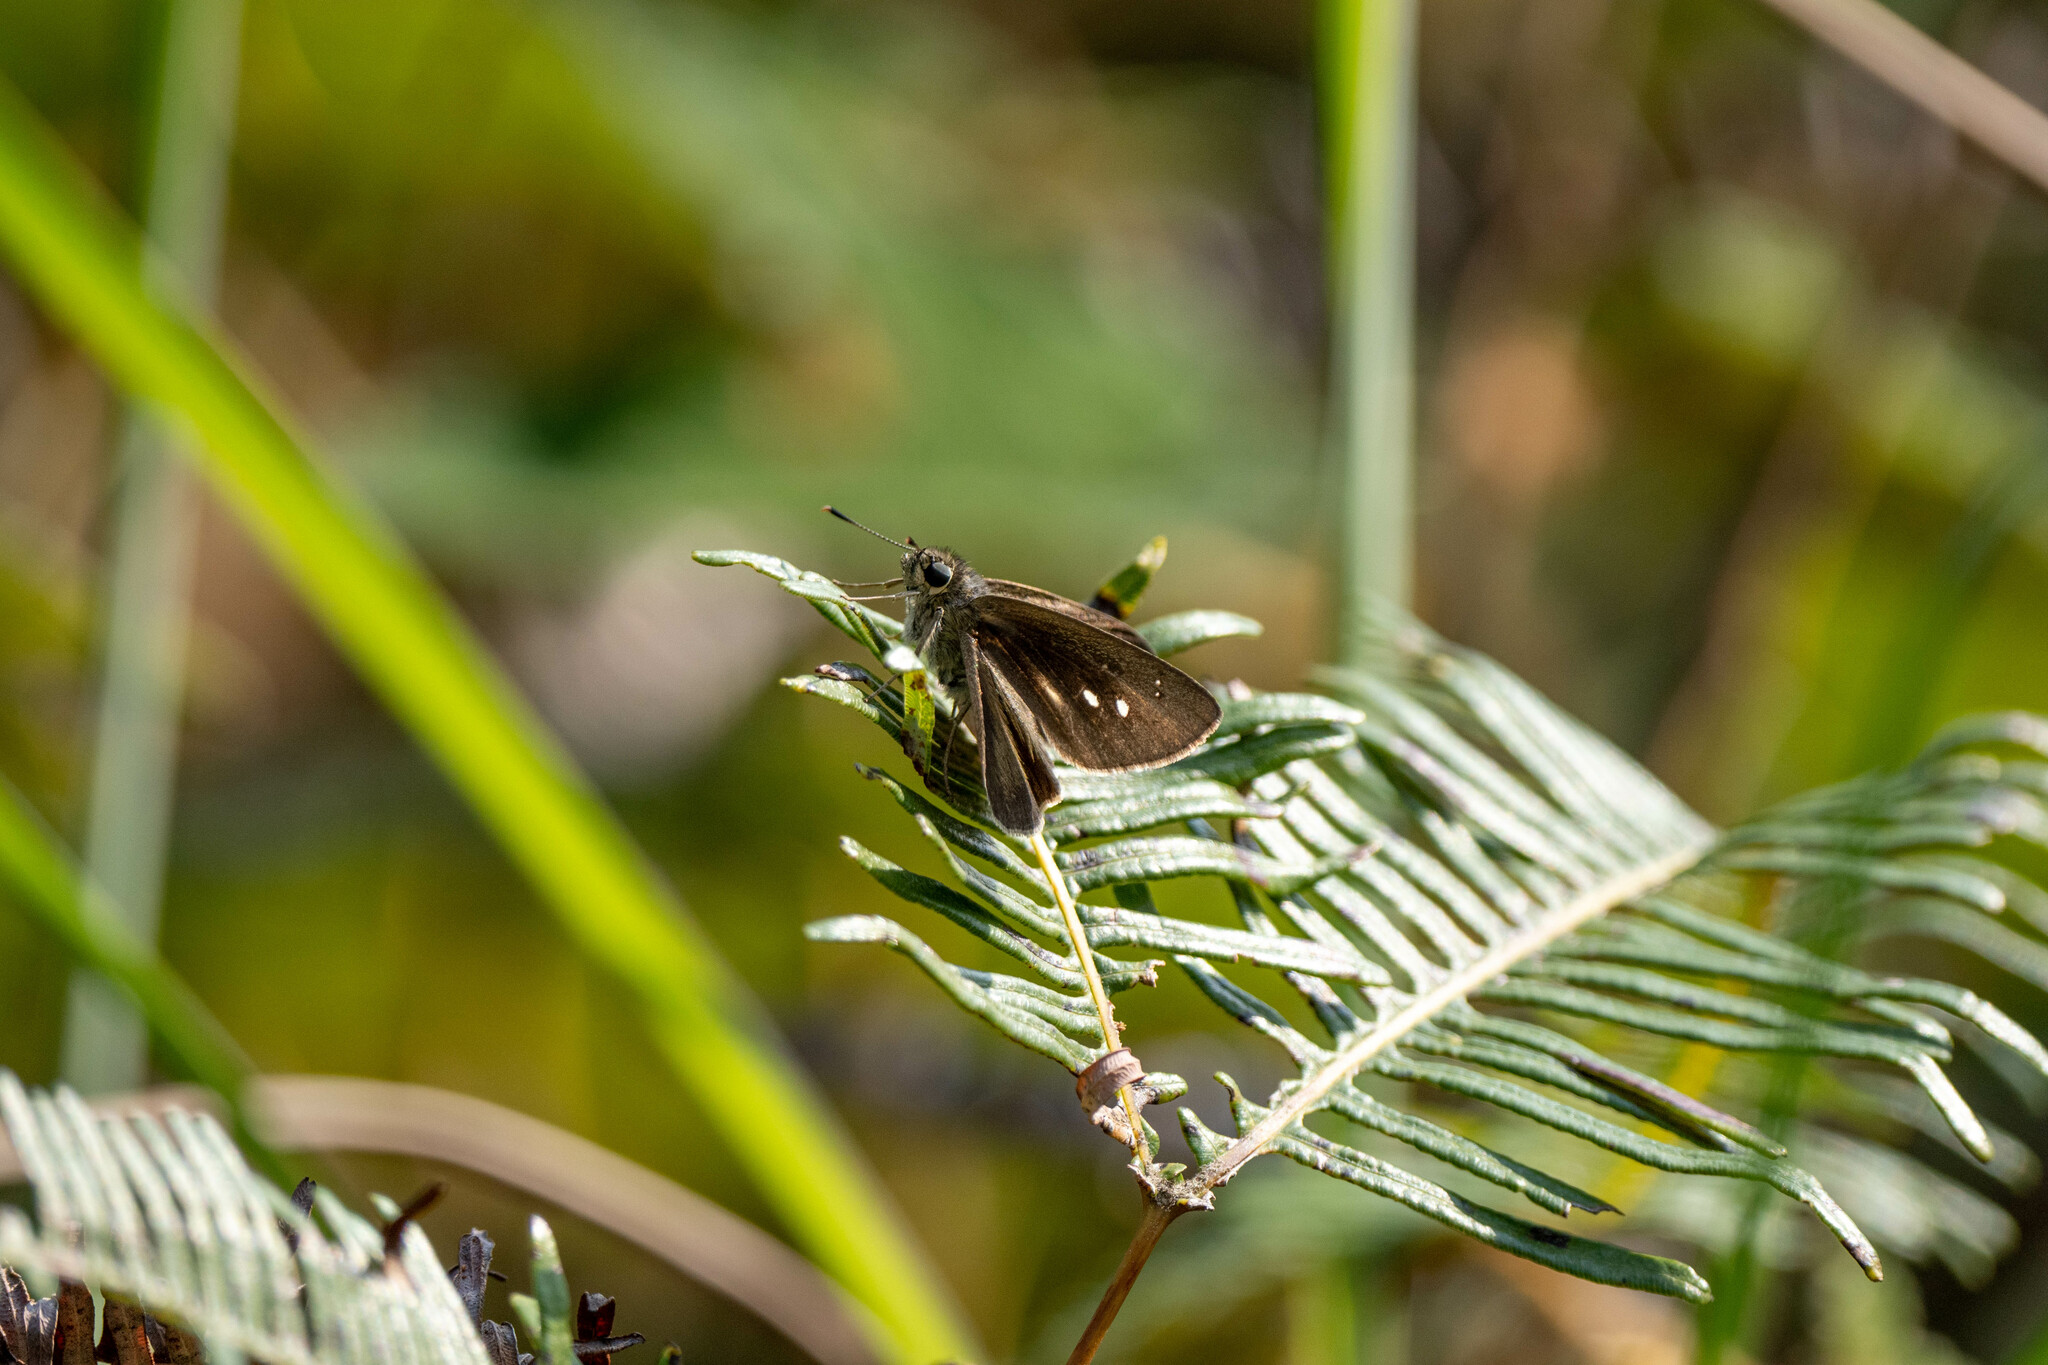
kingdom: Animalia
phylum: Arthropoda
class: Insecta
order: Lepidoptera
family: Hesperiidae
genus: Suastus
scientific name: Suastus gremius
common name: Indian palm bob
